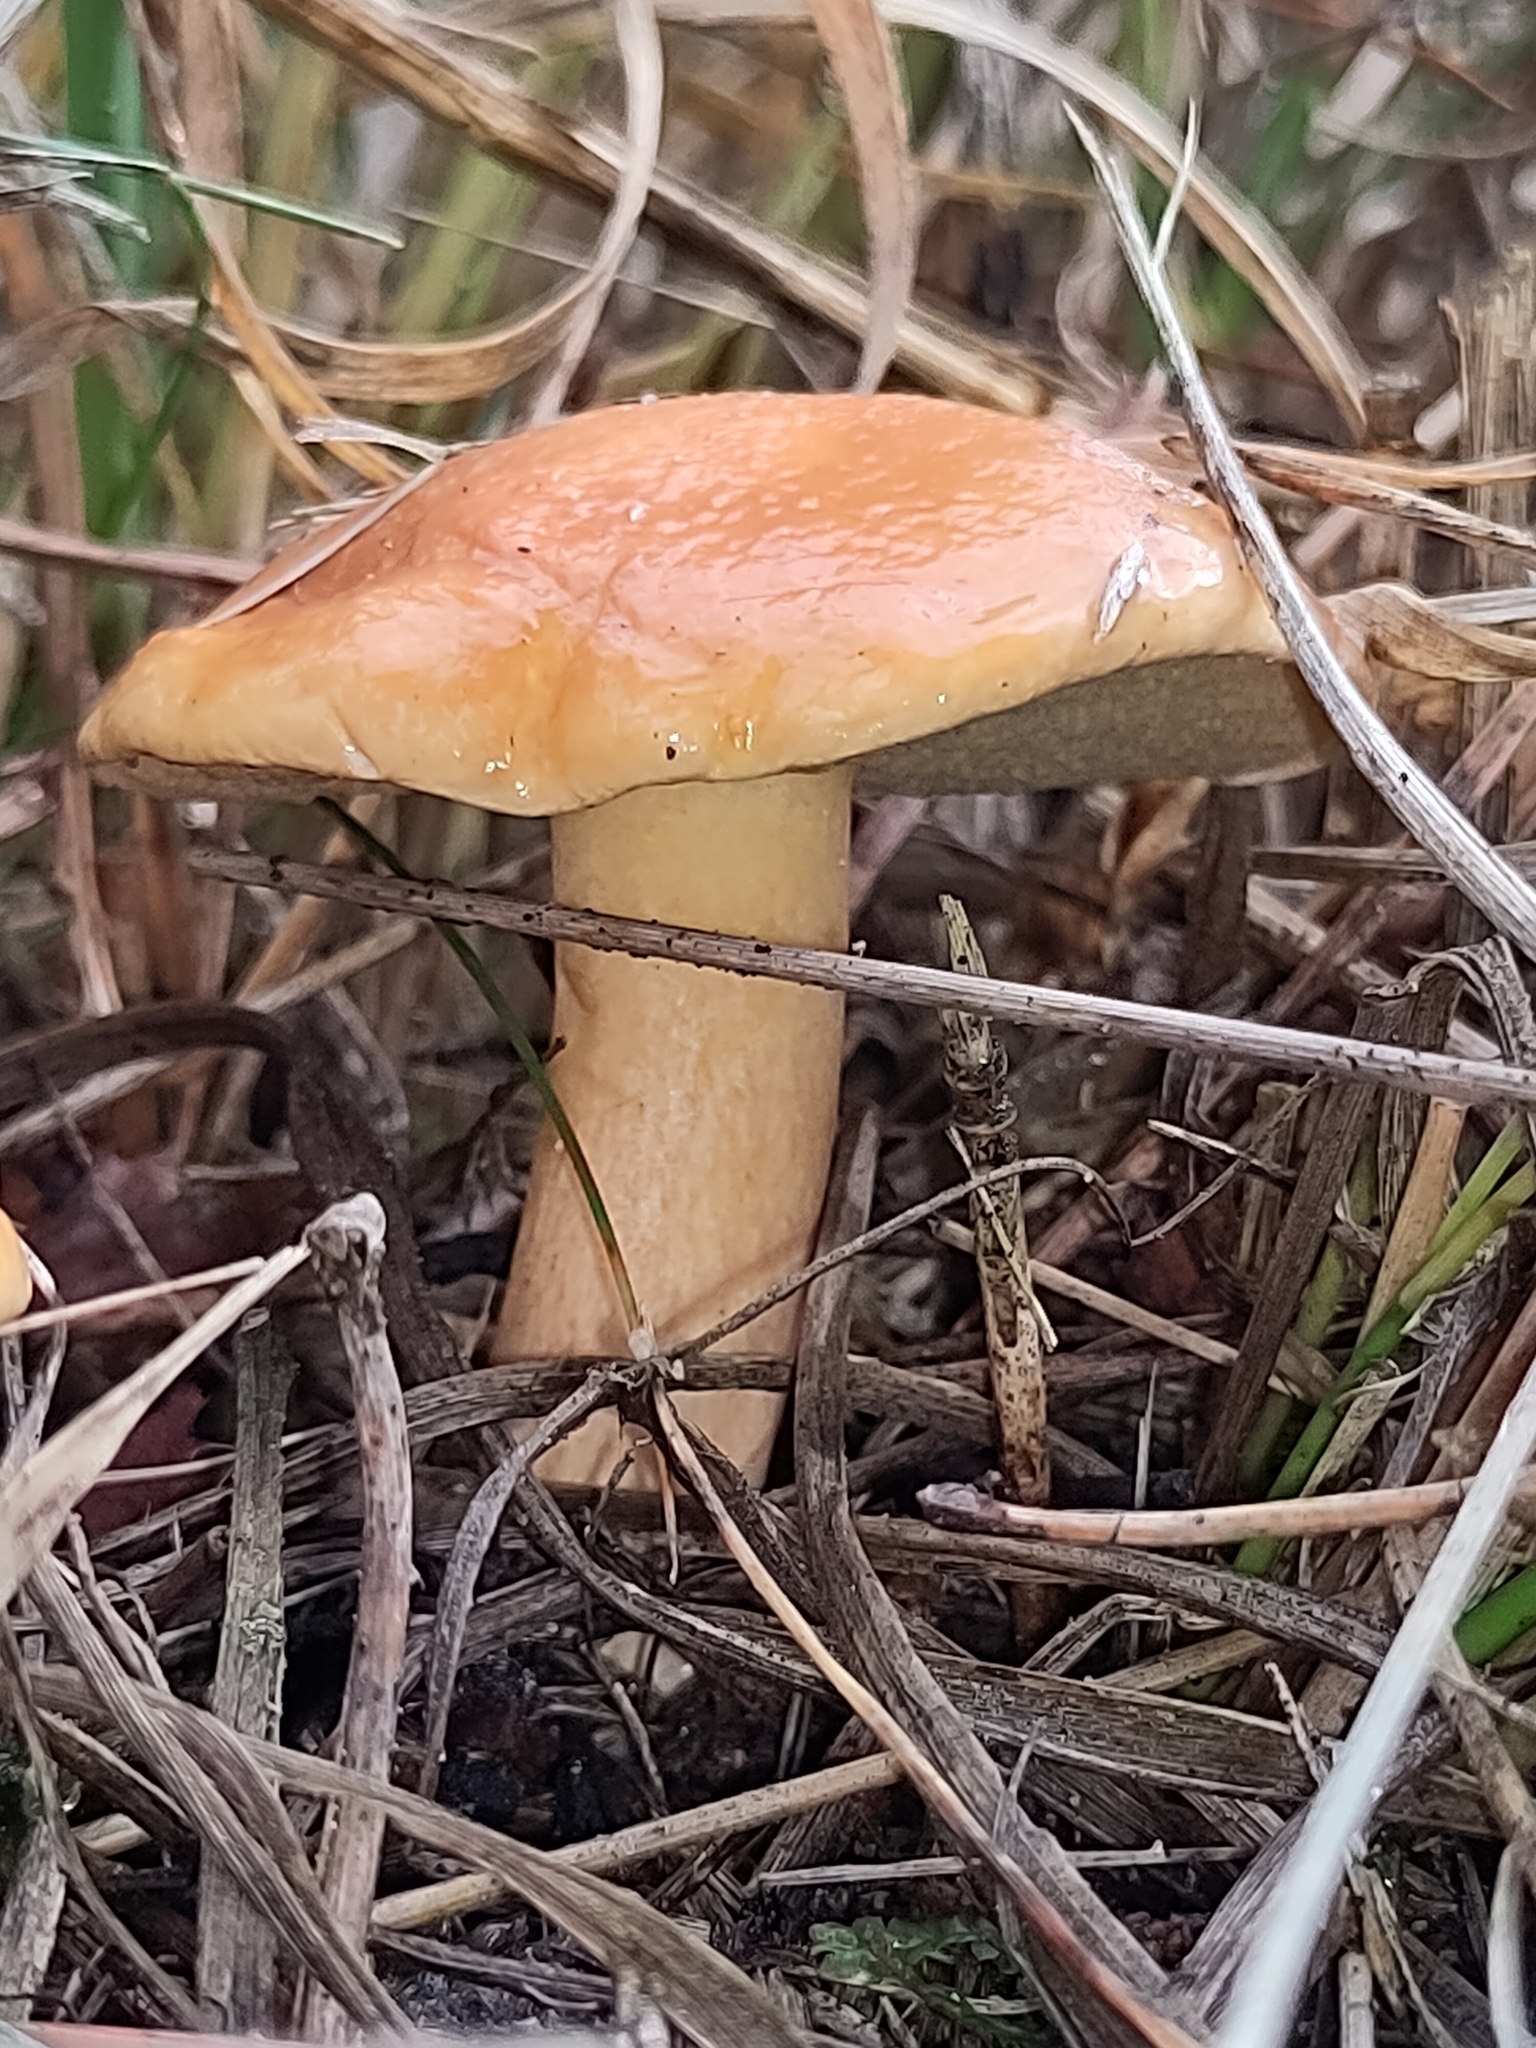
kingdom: Fungi
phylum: Basidiomycota
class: Agaricomycetes
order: Boletales
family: Suillaceae
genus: Suillus
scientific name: Suillus bovinus
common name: Bovine bolete
